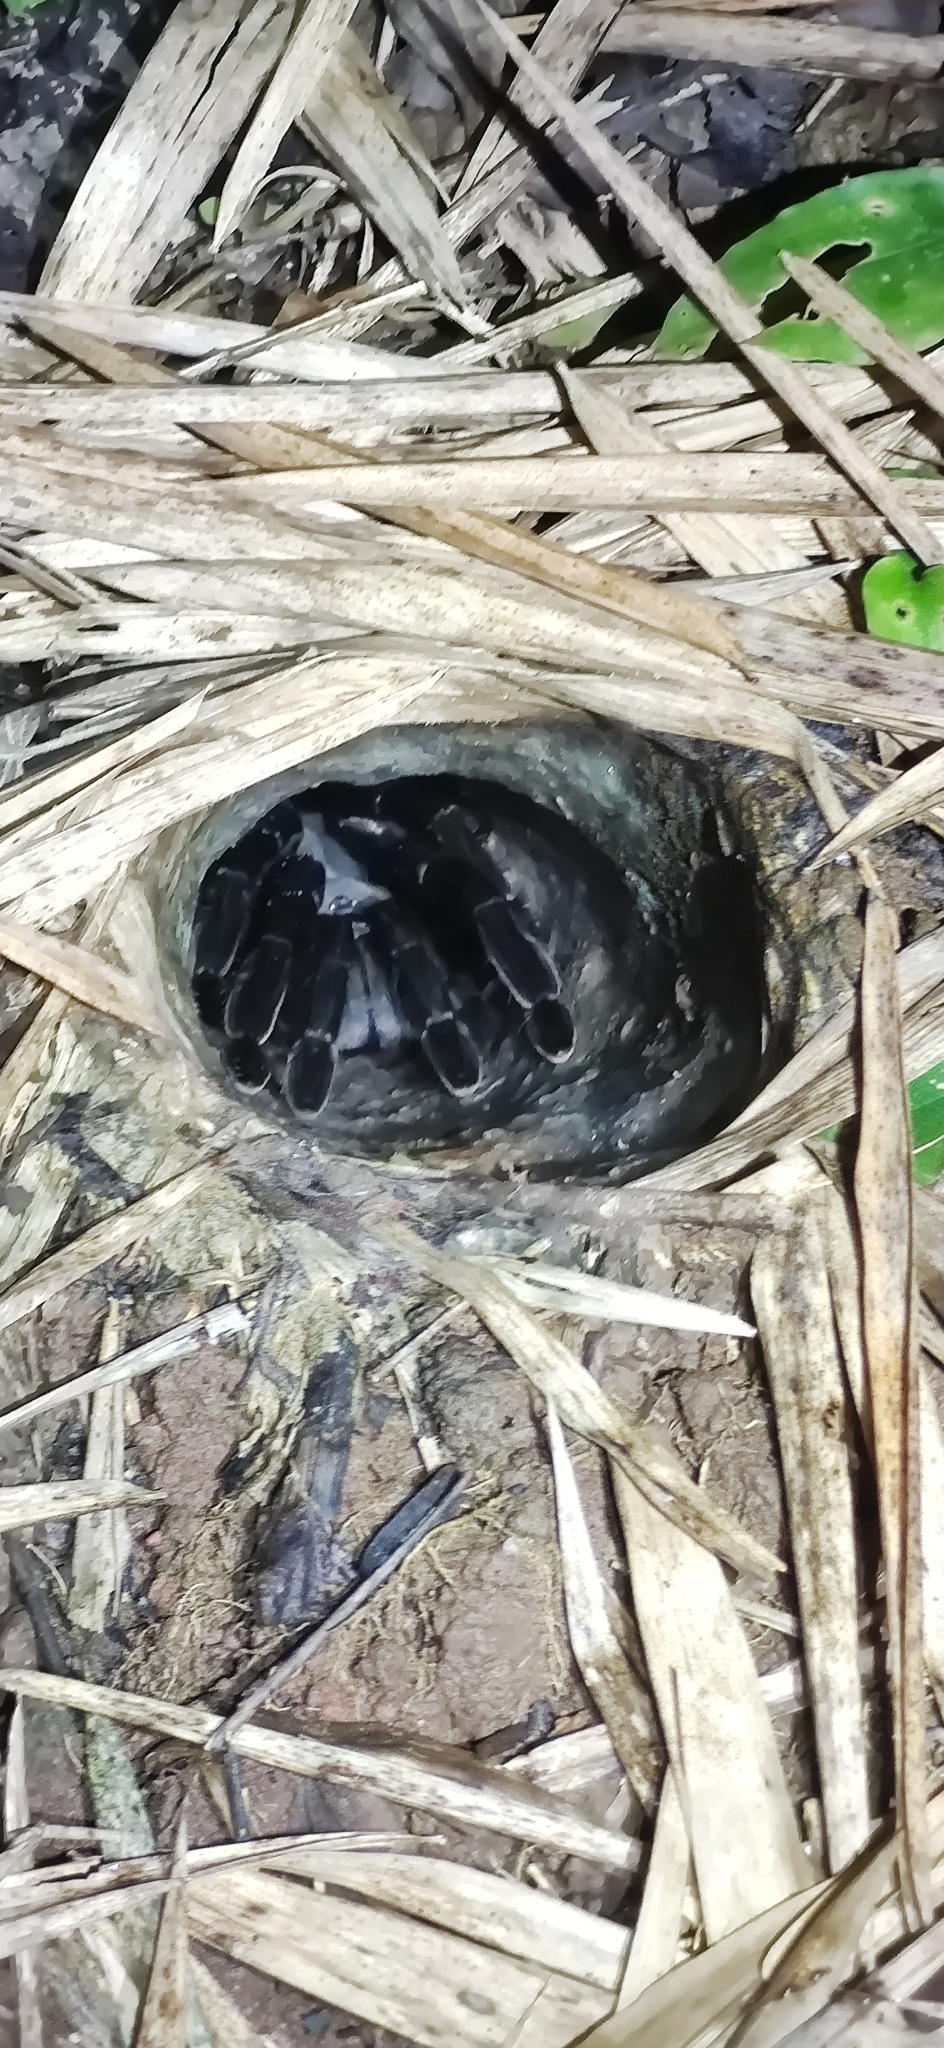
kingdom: Animalia
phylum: Arthropoda
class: Arachnida
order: Araneae
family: Theraphosidae
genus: Cyriopagopus
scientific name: Cyriopagopus minax
